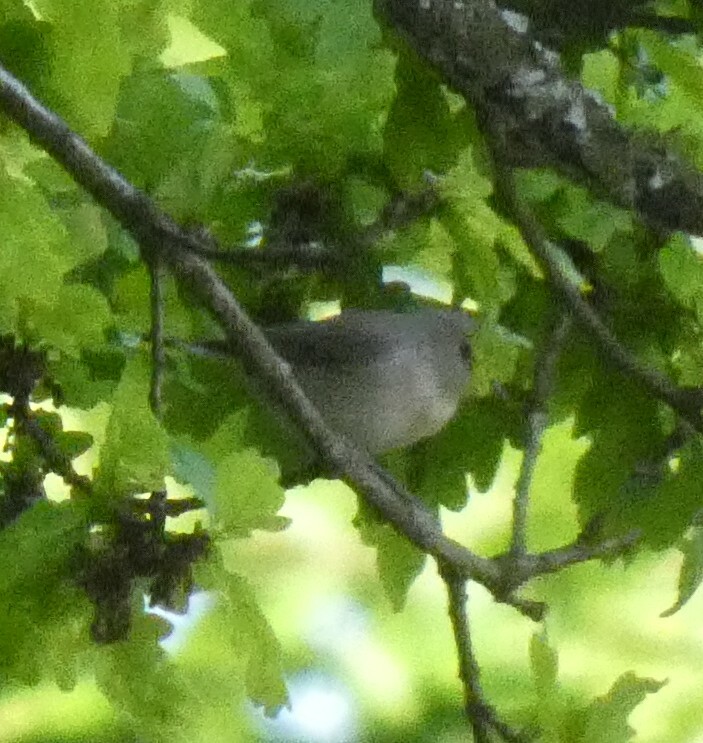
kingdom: Animalia
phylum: Chordata
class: Aves
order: Passeriformes
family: Sylviidae
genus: Sylvia
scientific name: Sylvia borin
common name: Garden warbler
